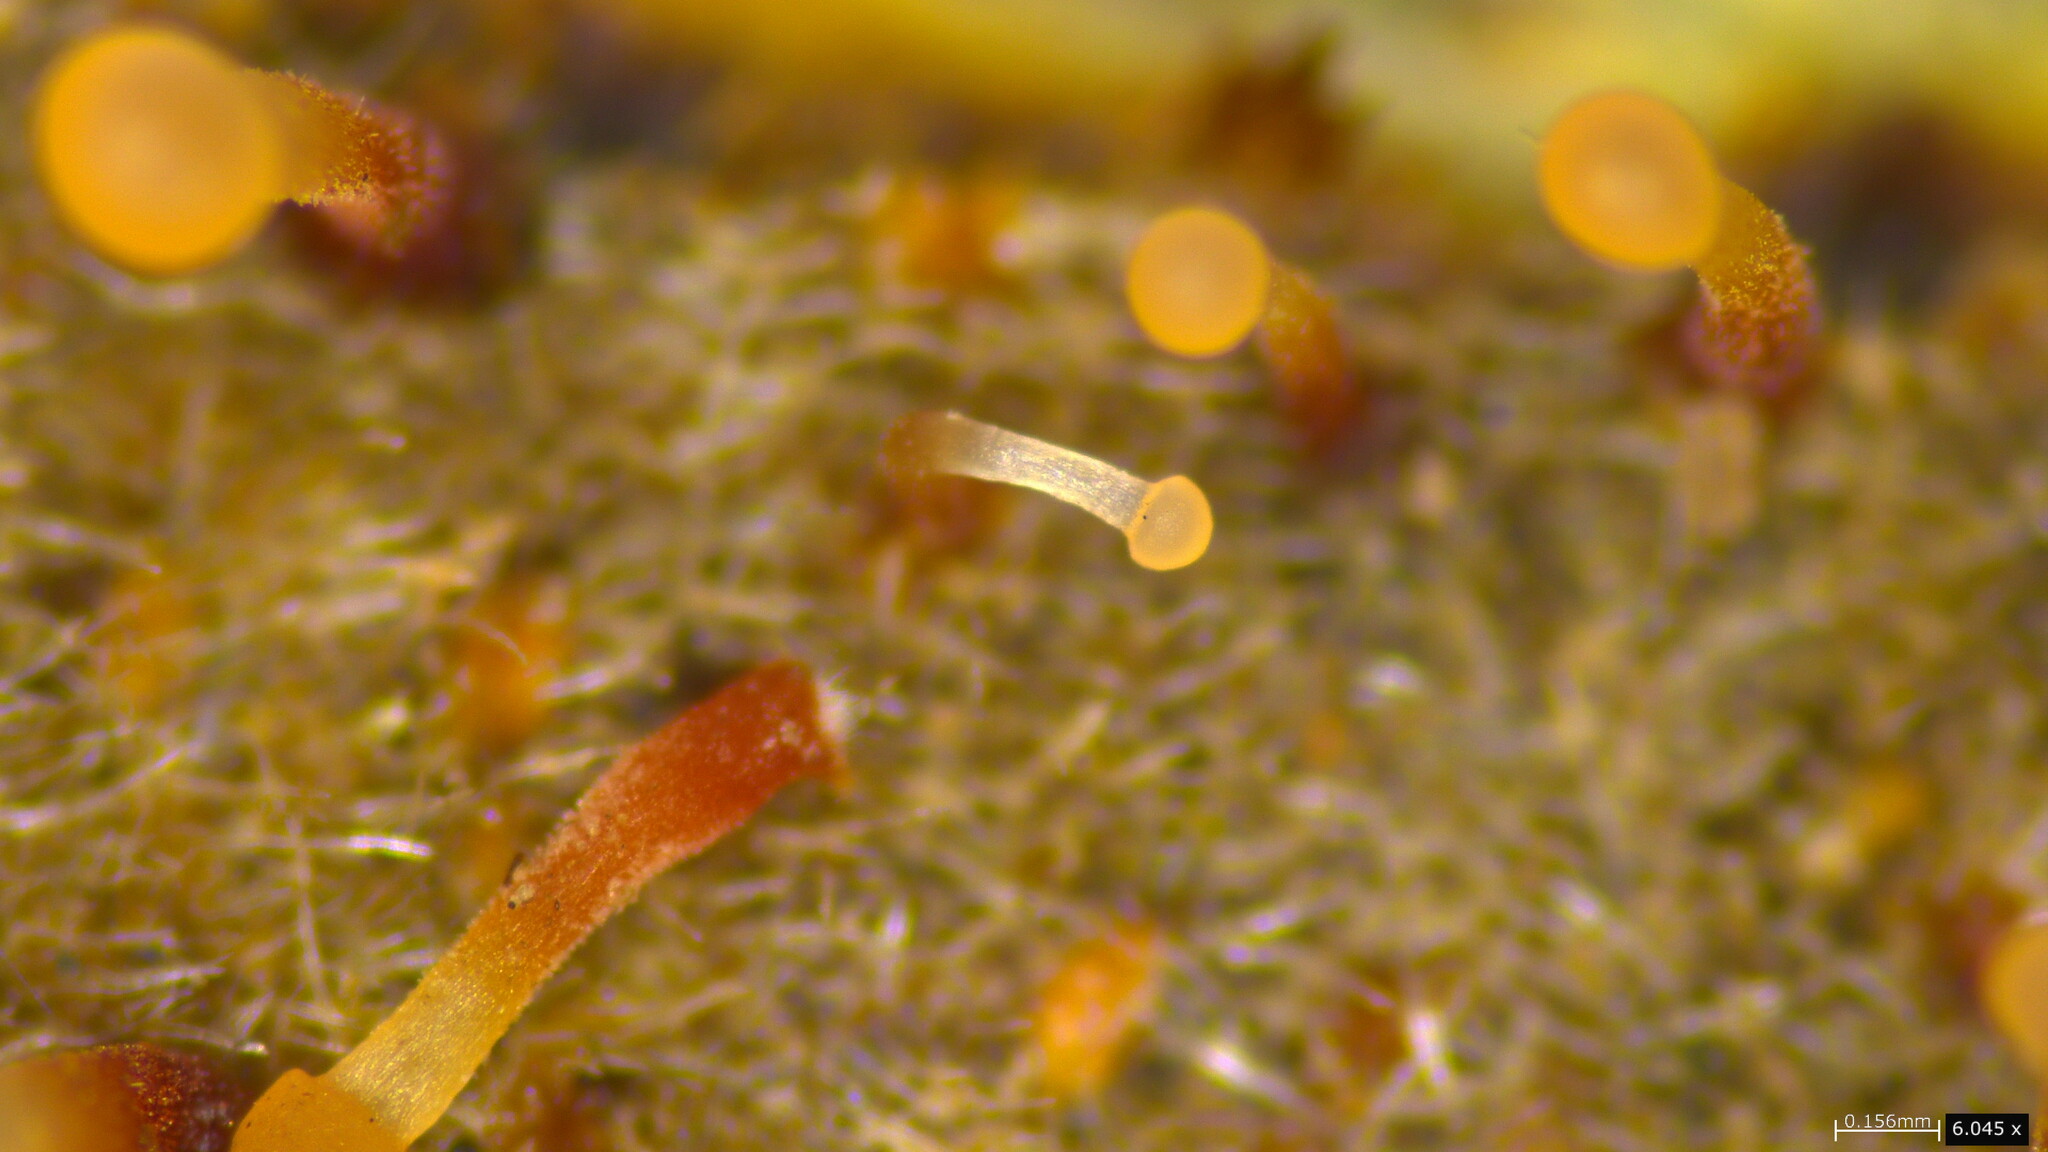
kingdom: Fungi
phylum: Ascomycota
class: Sordariomycetes
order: Hypocreales
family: Nectriaceae
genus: Nectria
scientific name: Nectria pseudotrichia
